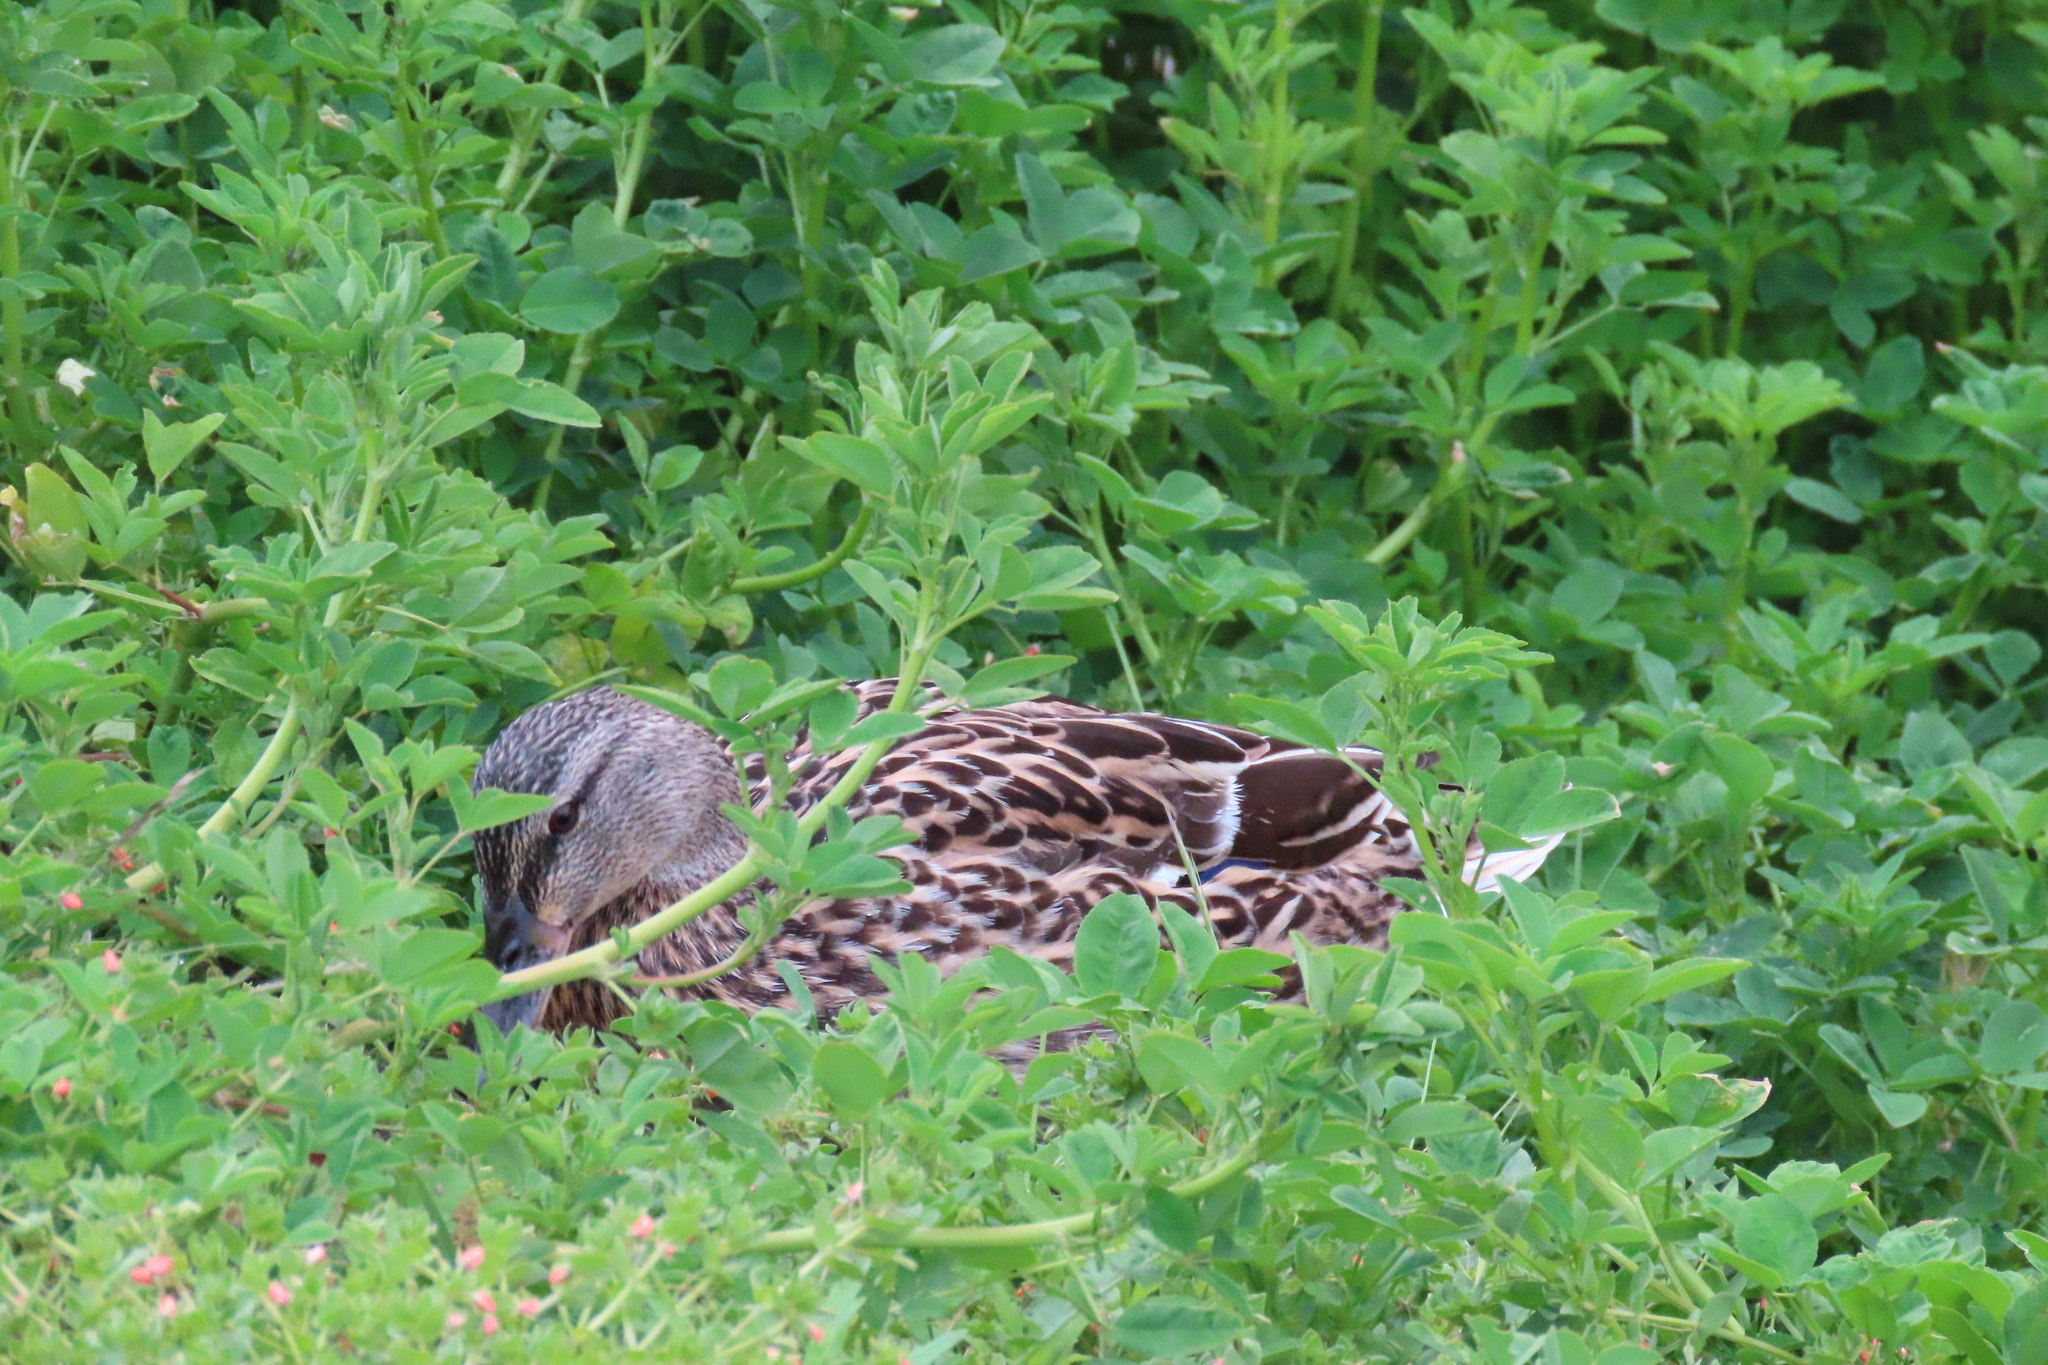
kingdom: Animalia
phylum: Chordata
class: Aves
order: Anseriformes
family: Anatidae
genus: Anas
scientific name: Anas platyrhynchos
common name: Mallard
